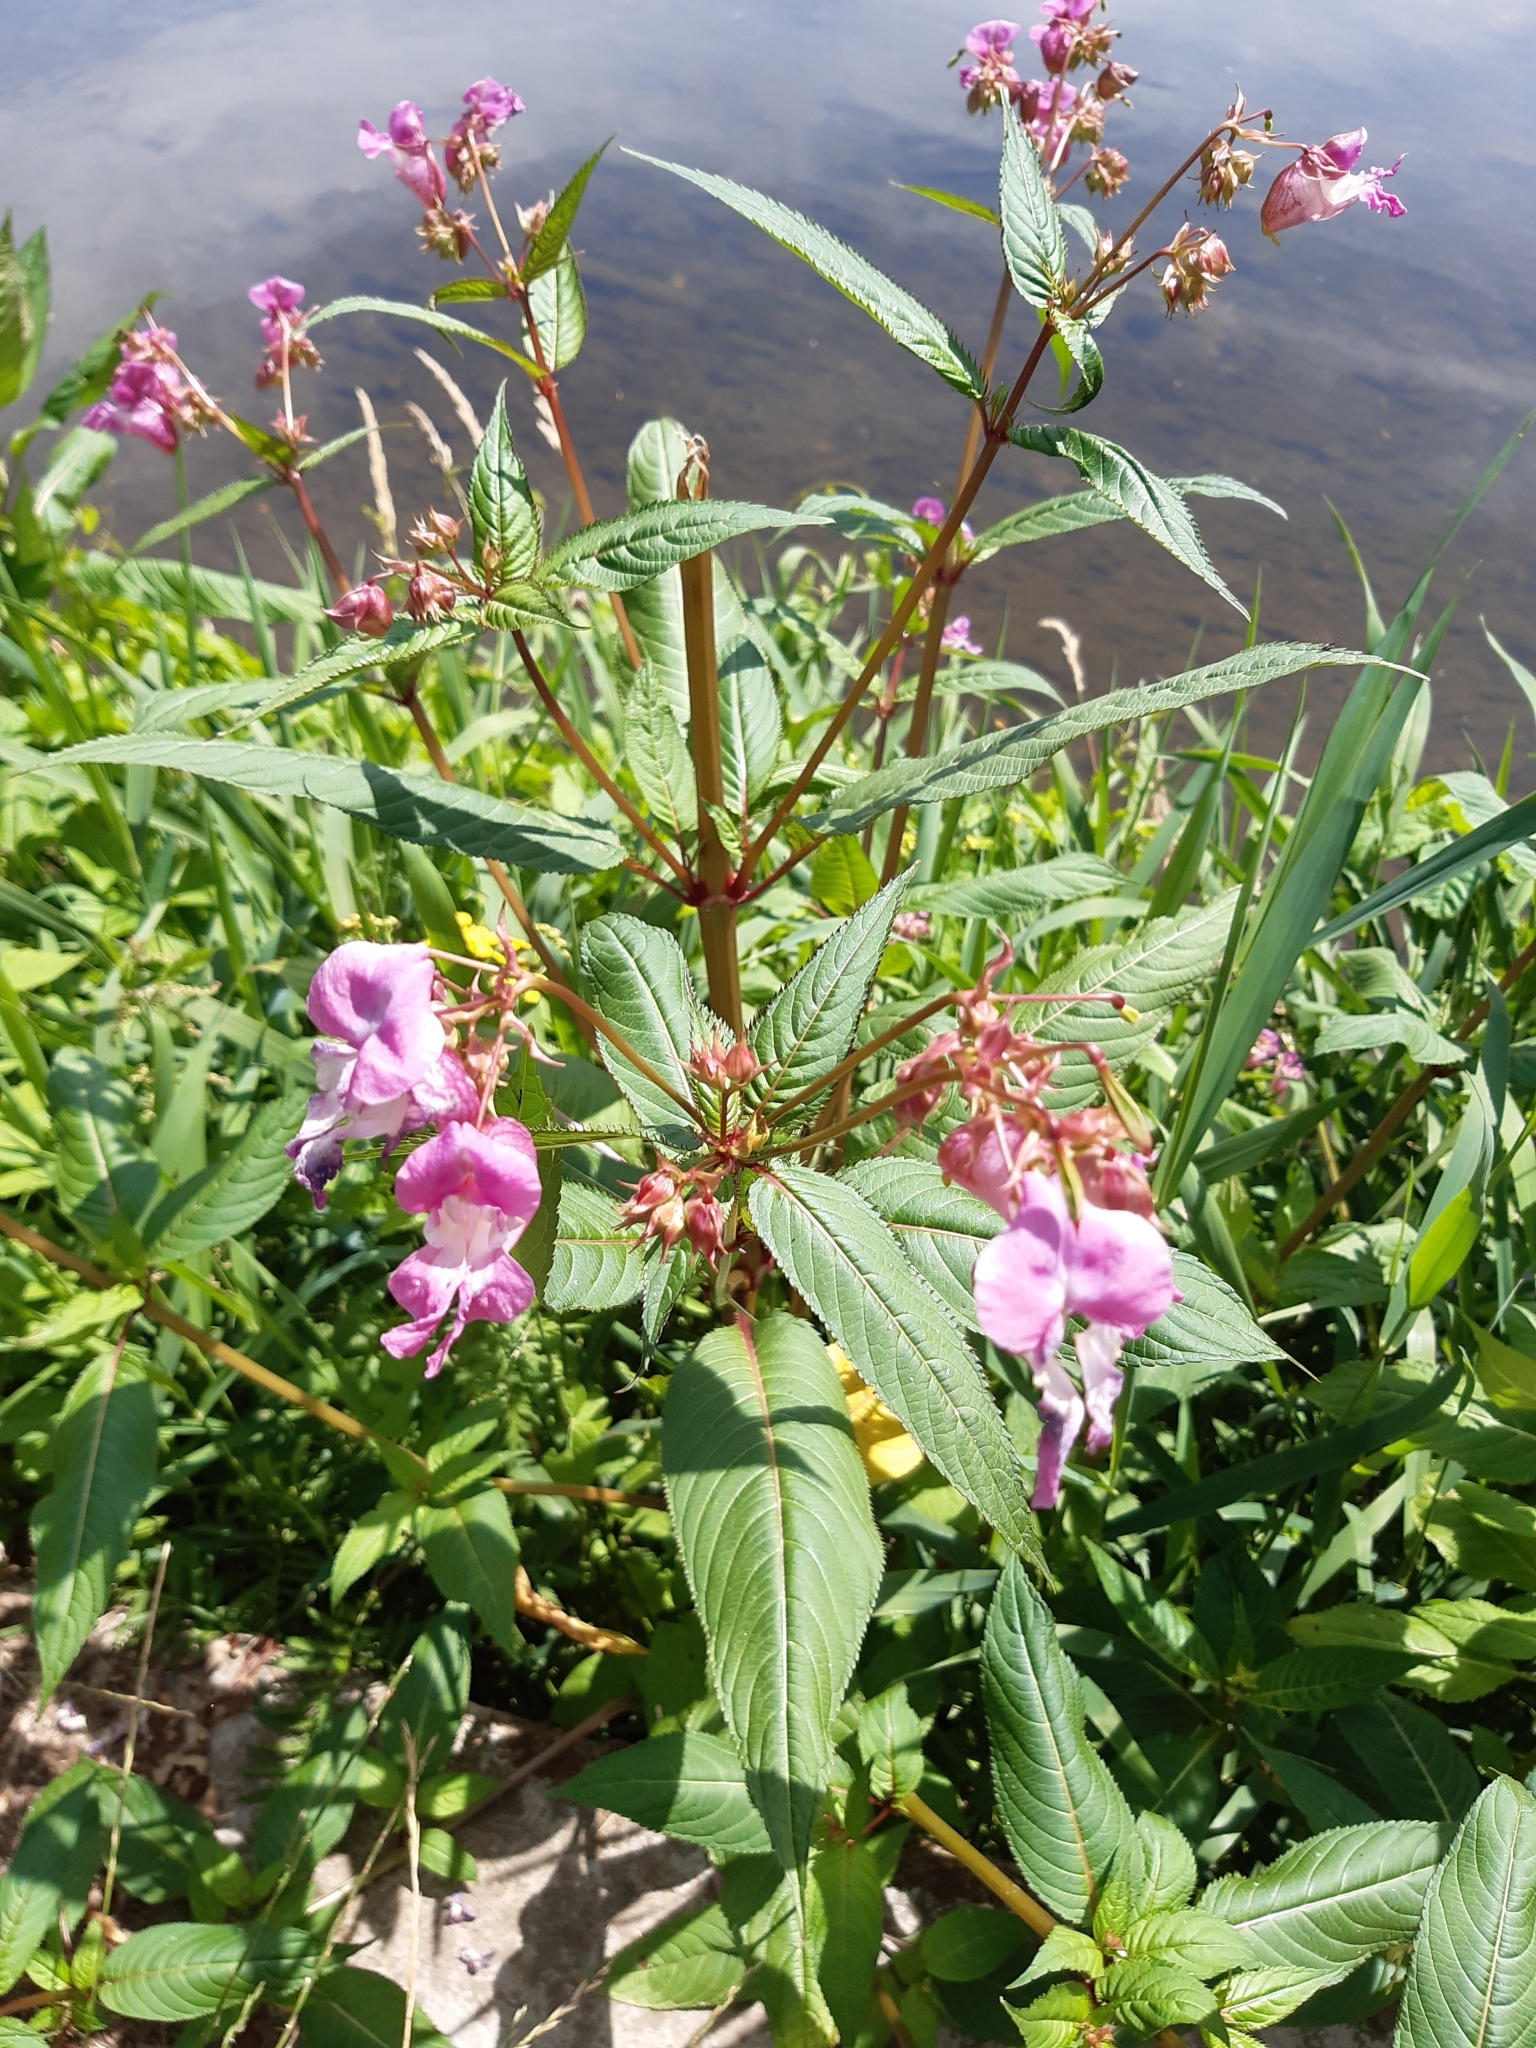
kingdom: Plantae
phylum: Tracheophyta
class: Magnoliopsida
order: Ericales
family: Balsaminaceae
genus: Impatiens
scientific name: Impatiens glandulifera
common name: Himalayan balsam
